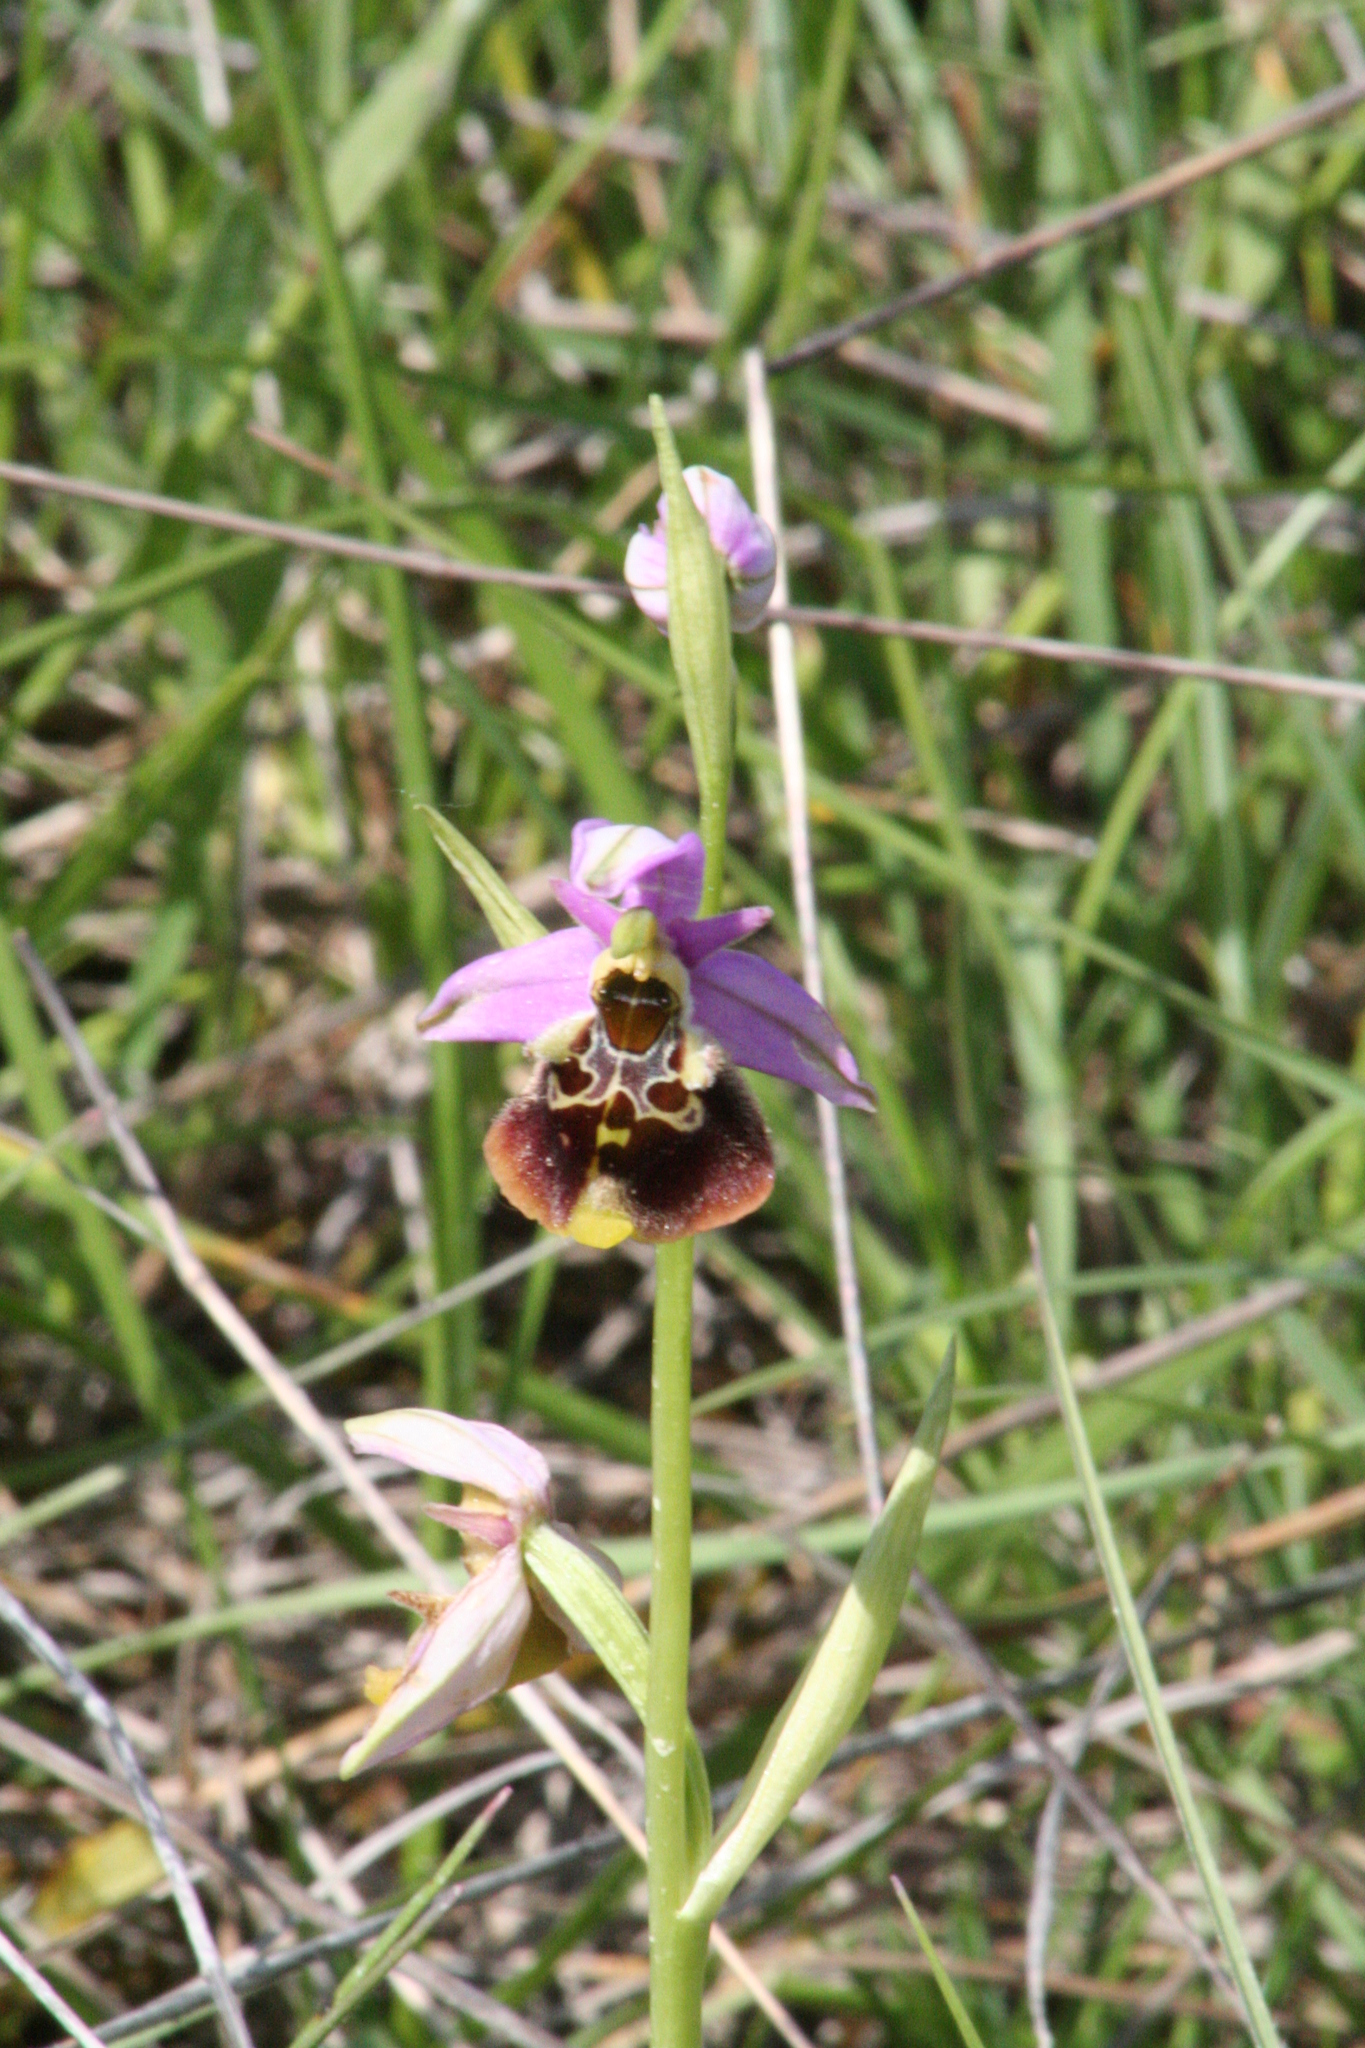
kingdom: Plantae
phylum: Tracheophyta
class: Liliopsida
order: Asparagales
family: Orchidaceae
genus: Ophrys
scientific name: Ophrys holosericea
